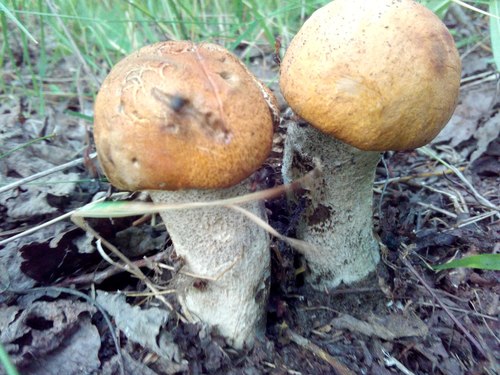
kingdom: Fungi
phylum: Basidiomycota
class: Agaricomycetes
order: Boletales
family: Boletaceae
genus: Leccinum
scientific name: Leccinum albostipitatum
